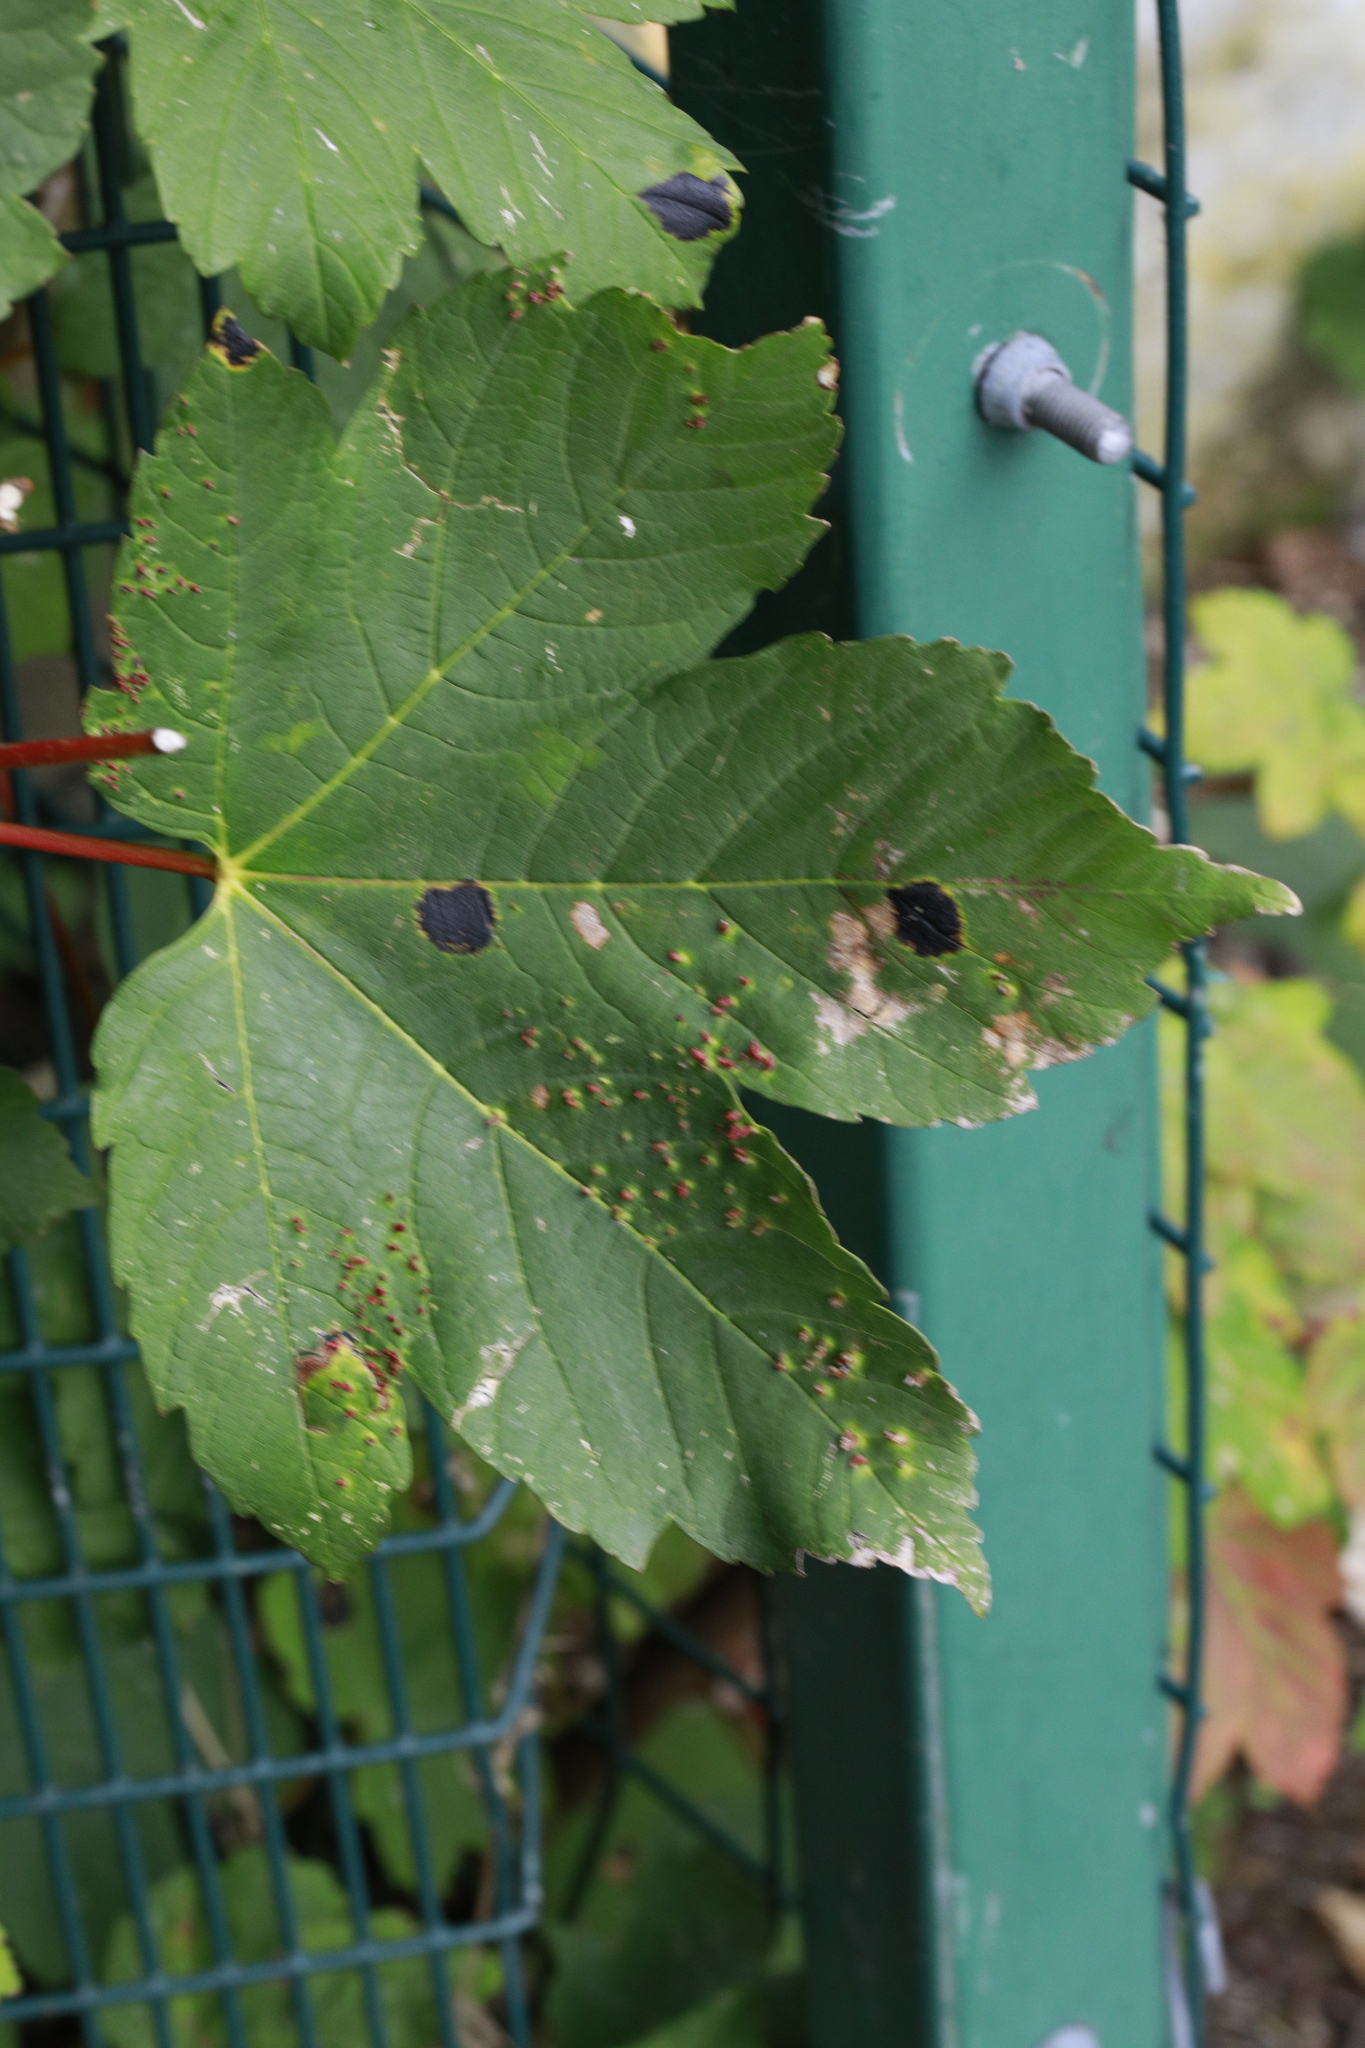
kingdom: Fungi
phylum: Ascomycota
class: Leotiomycetes
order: Rhytismatales
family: Rhytismataceae
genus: Rhytisma
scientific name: Rhytisma acerinum
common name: European tar spot
